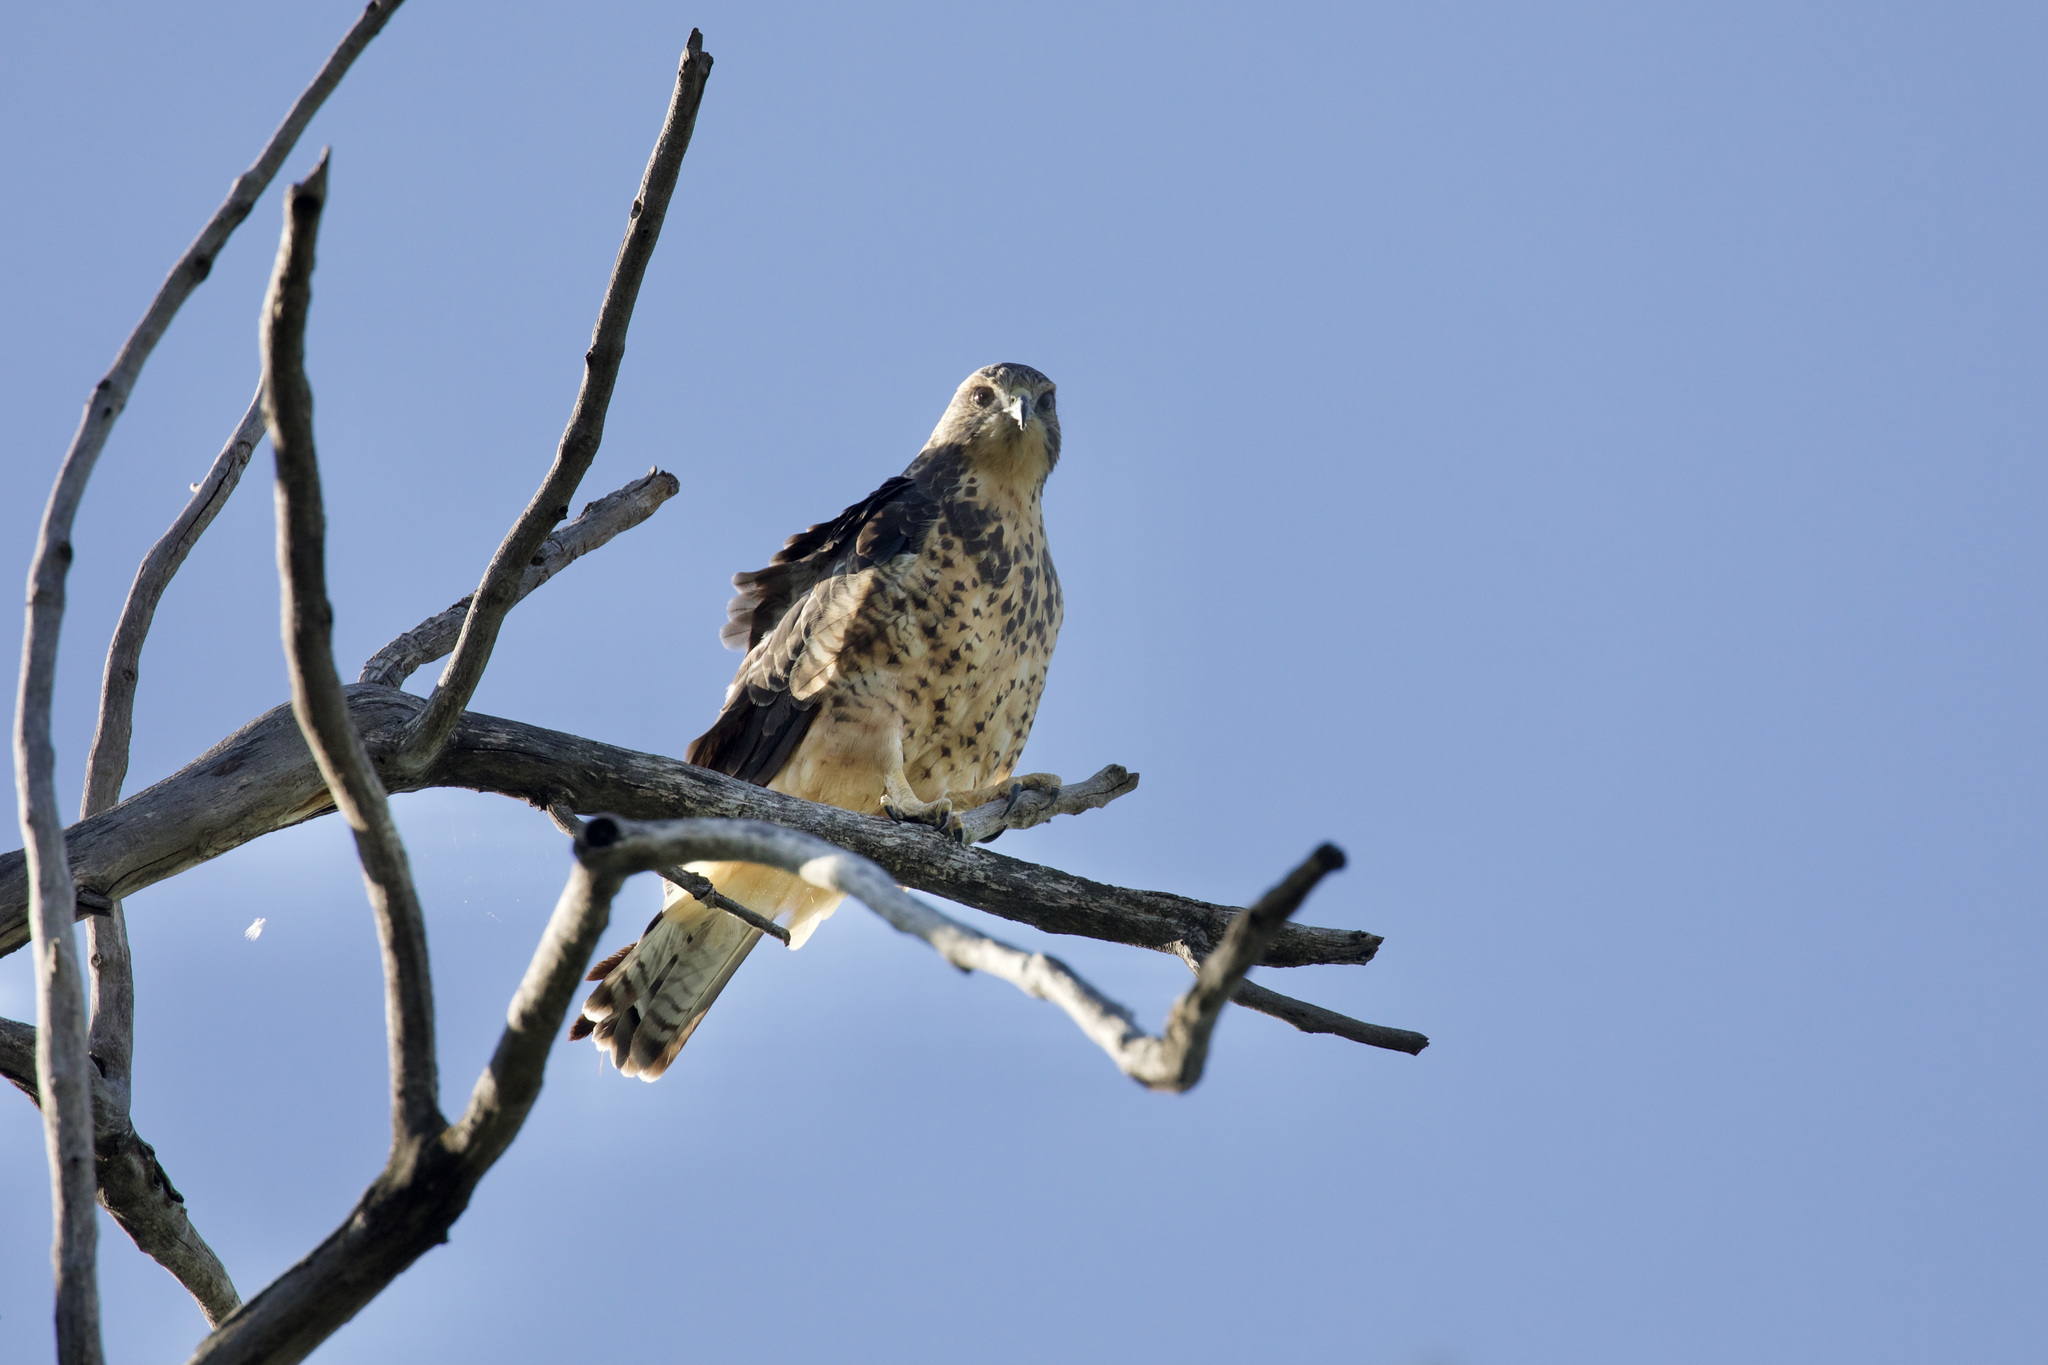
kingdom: Animalia
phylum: Chordata
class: Aves
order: Accipitriformes
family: Accipitridae
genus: Buteo
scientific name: Buteo swainsoni
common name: Swainson's hawk
